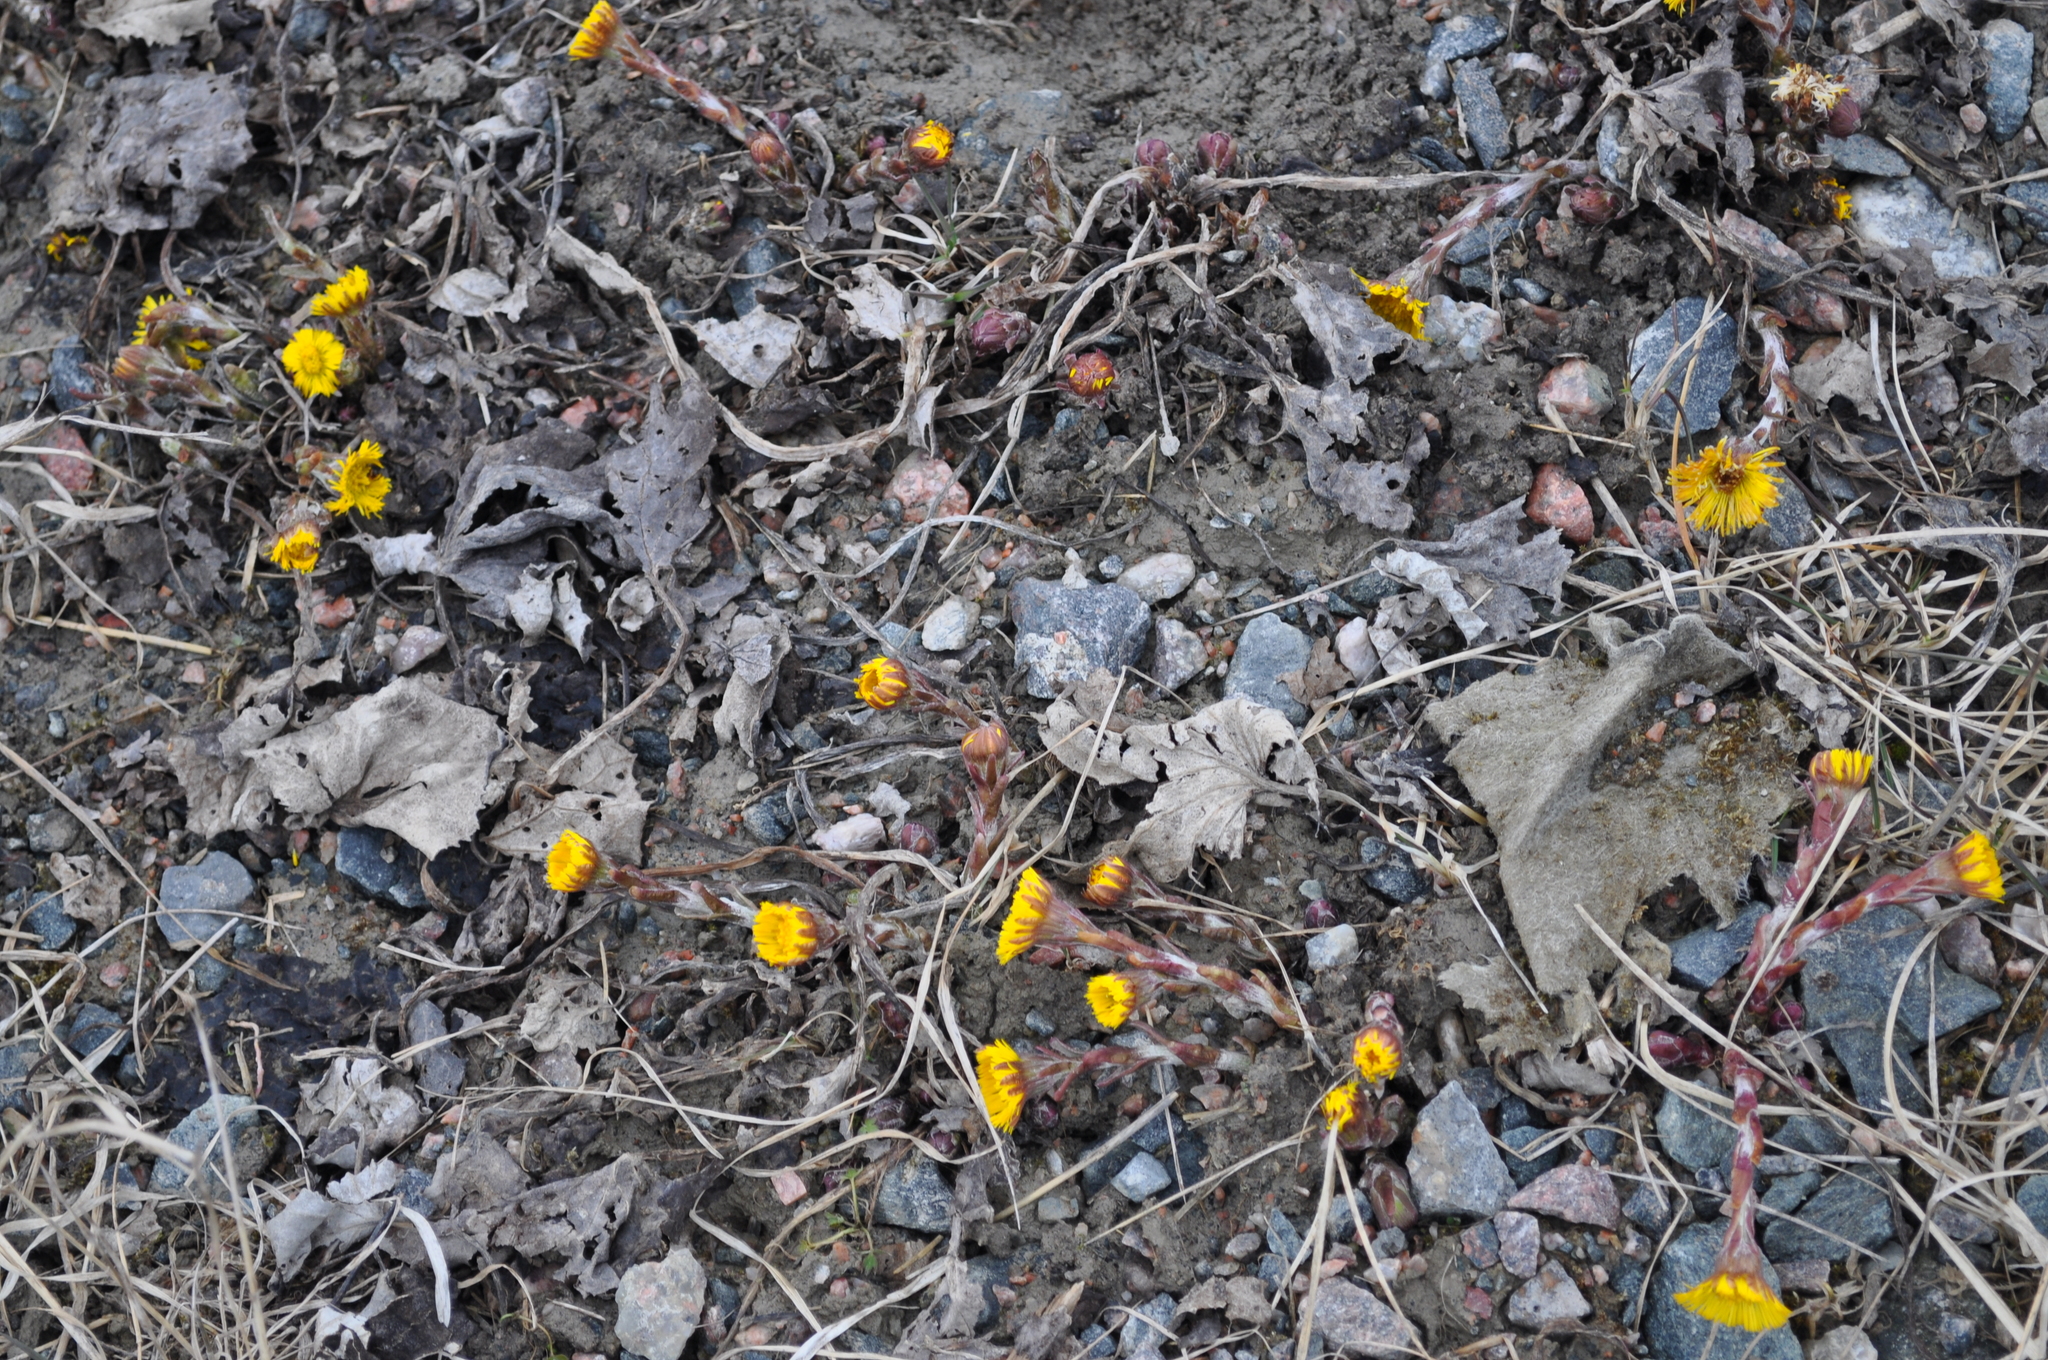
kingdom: Plantae
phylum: Tracheophyta
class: Magnoliopsida
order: Asterales
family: Asteraceae
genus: Tussilago
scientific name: Tussilago farfara
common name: Coltsfoot
